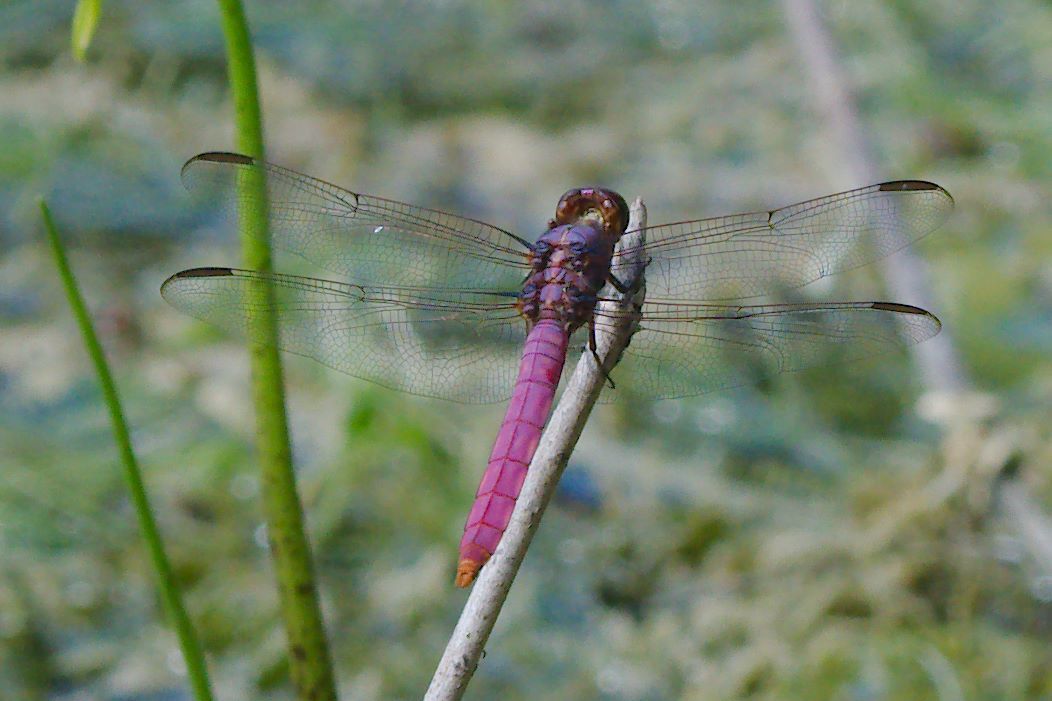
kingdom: Animalia
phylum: Arthropoda
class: Insecta
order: Odonata
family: Libellulidae
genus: Orthemis
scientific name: Orthemis ferruginea
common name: Roseate skimmer
